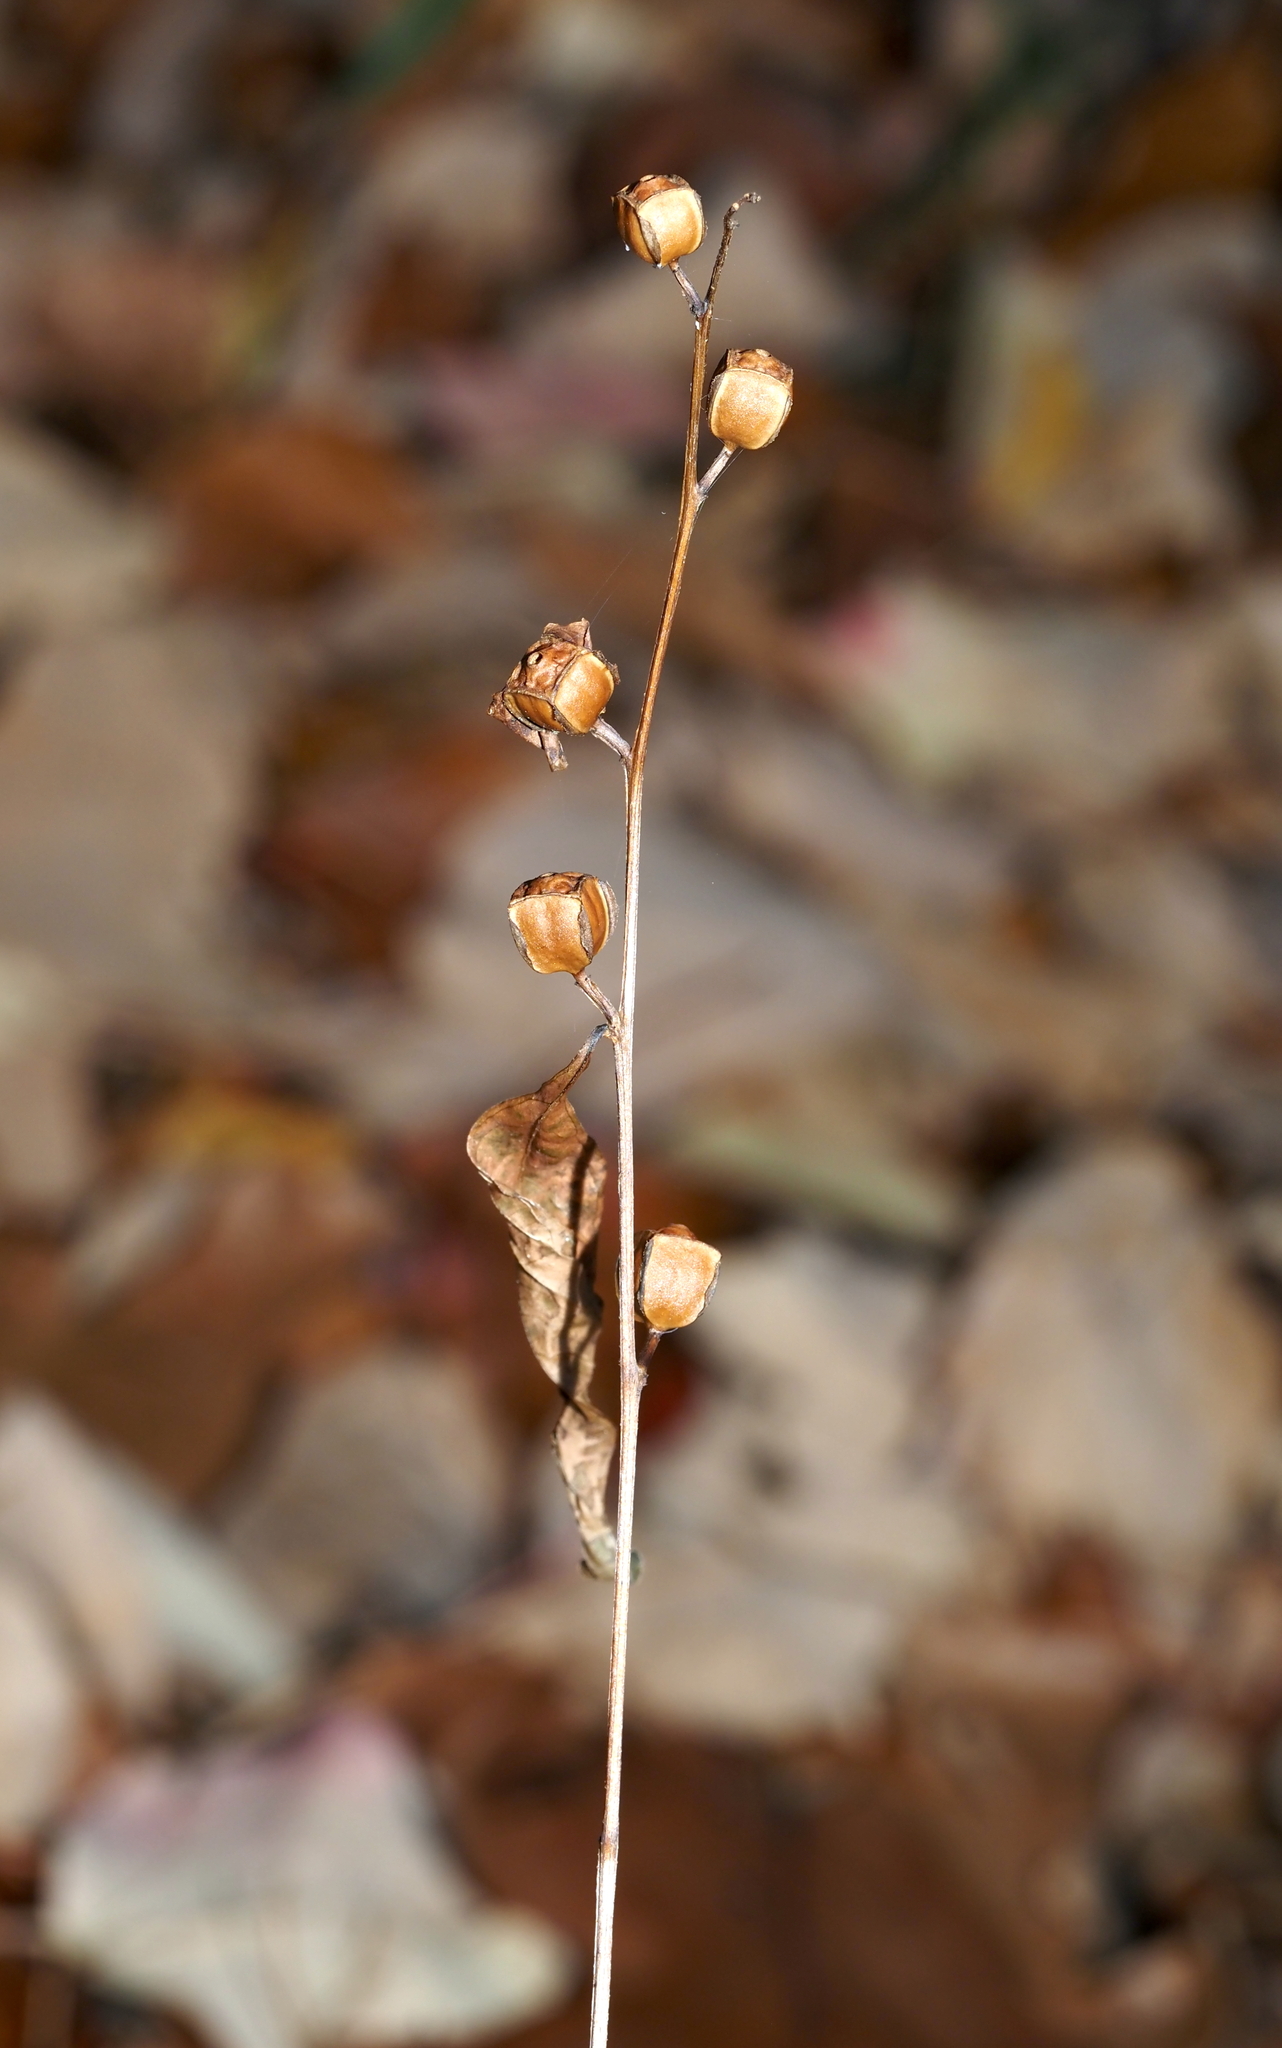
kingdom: Plantae
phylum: Tracheophyta
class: Magnoliopsida
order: Myrtales
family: Onagraceae
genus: Ludwigia
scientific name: Ludwigia alternifolia
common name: Rattlebox
